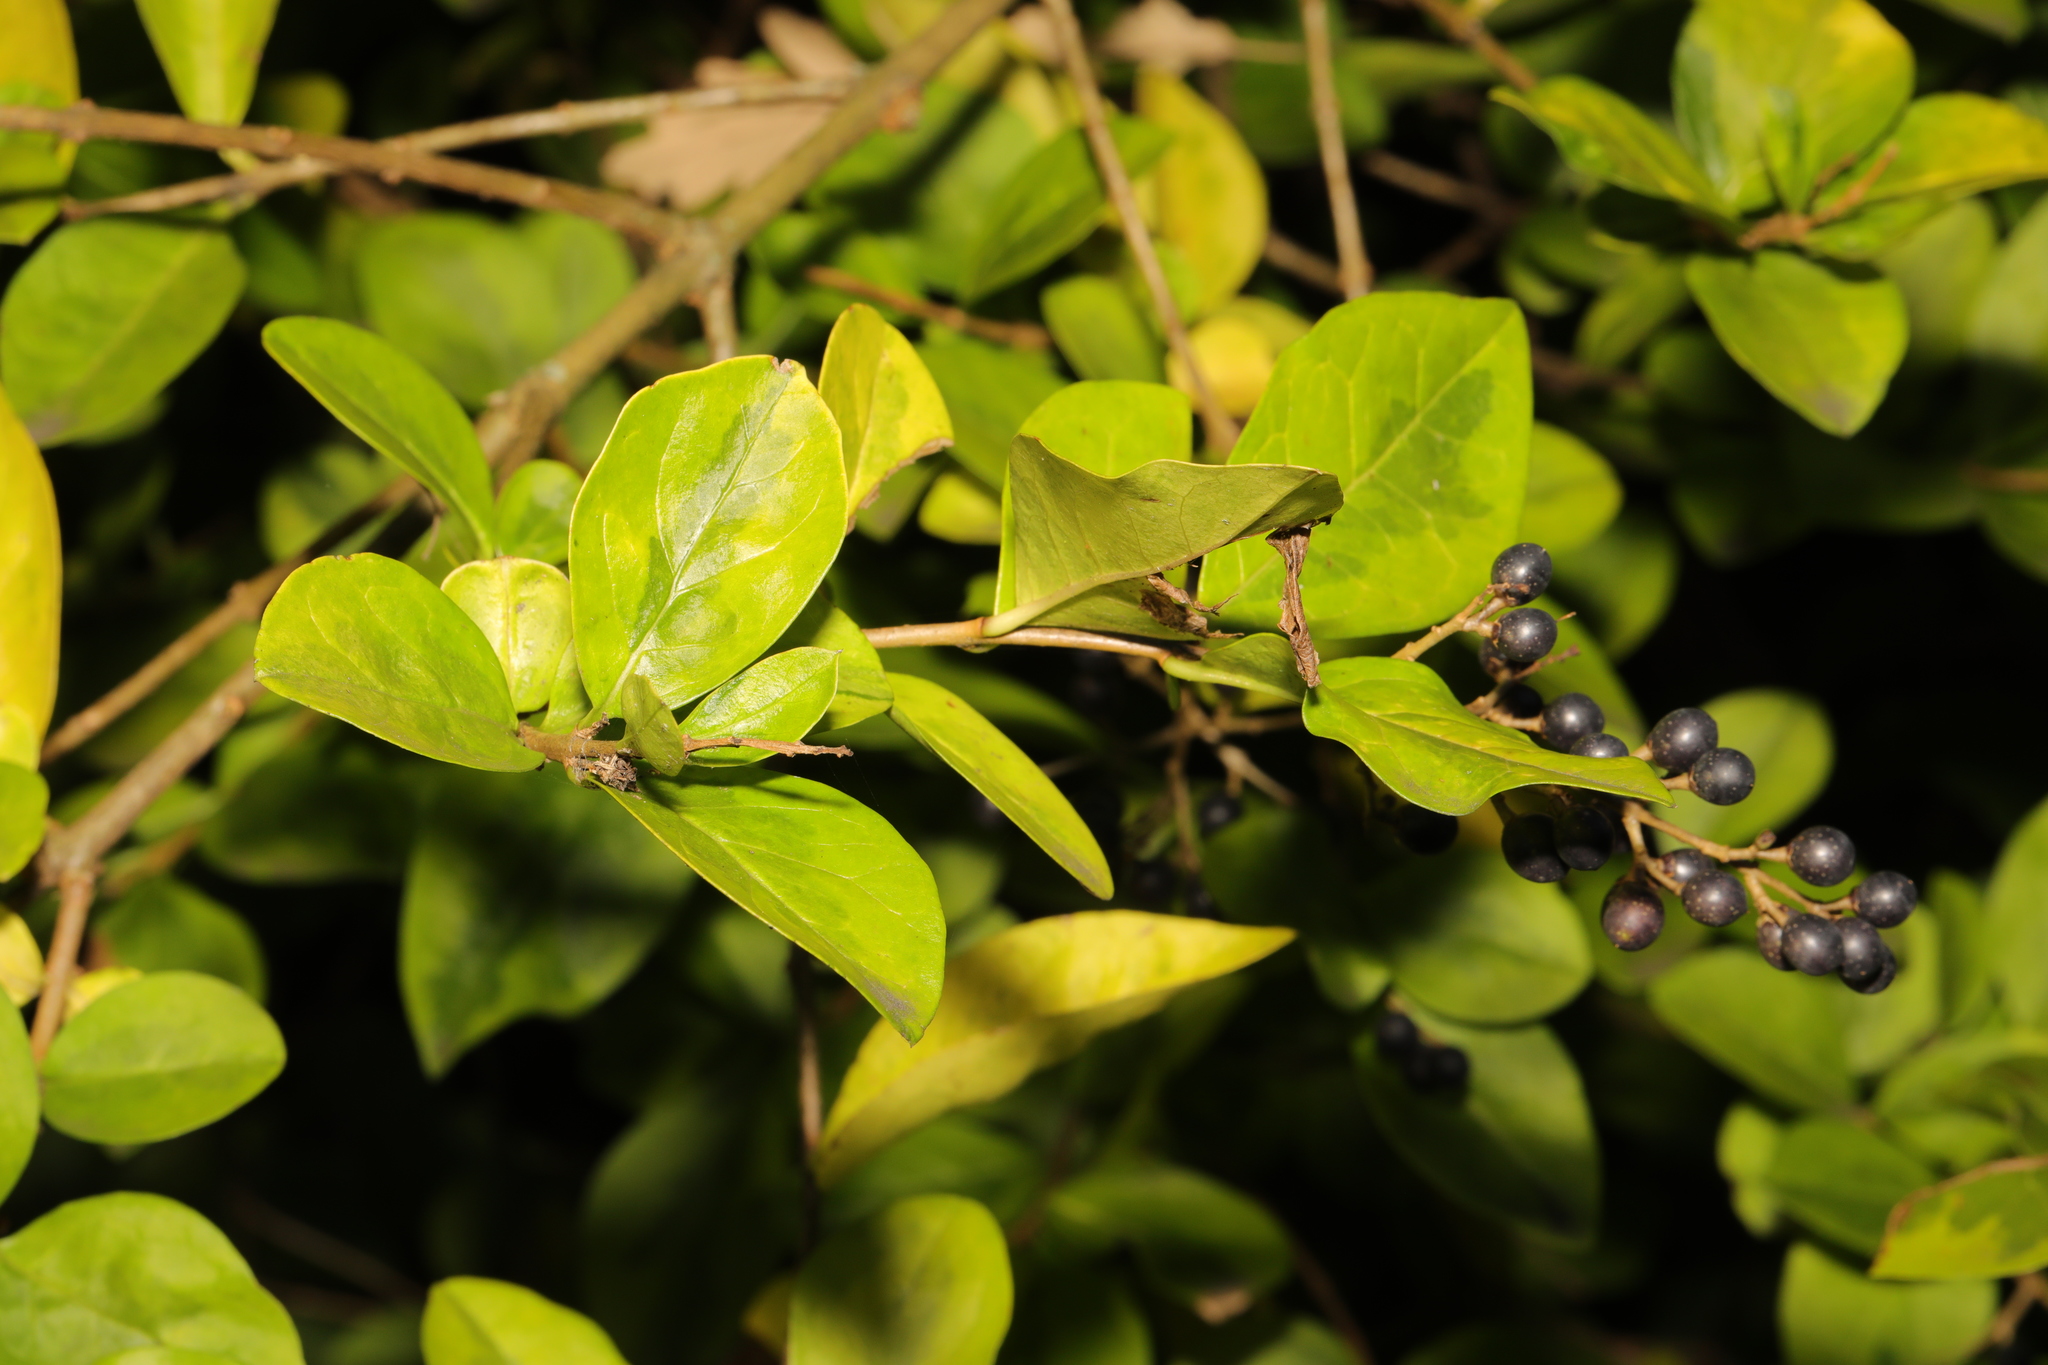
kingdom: Plantae
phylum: Tracheophyta
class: Magnoliopsida
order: Lamiales
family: Oleaceae
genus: Ligustrum
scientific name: Ligustrum ovalifolium
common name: California privet
